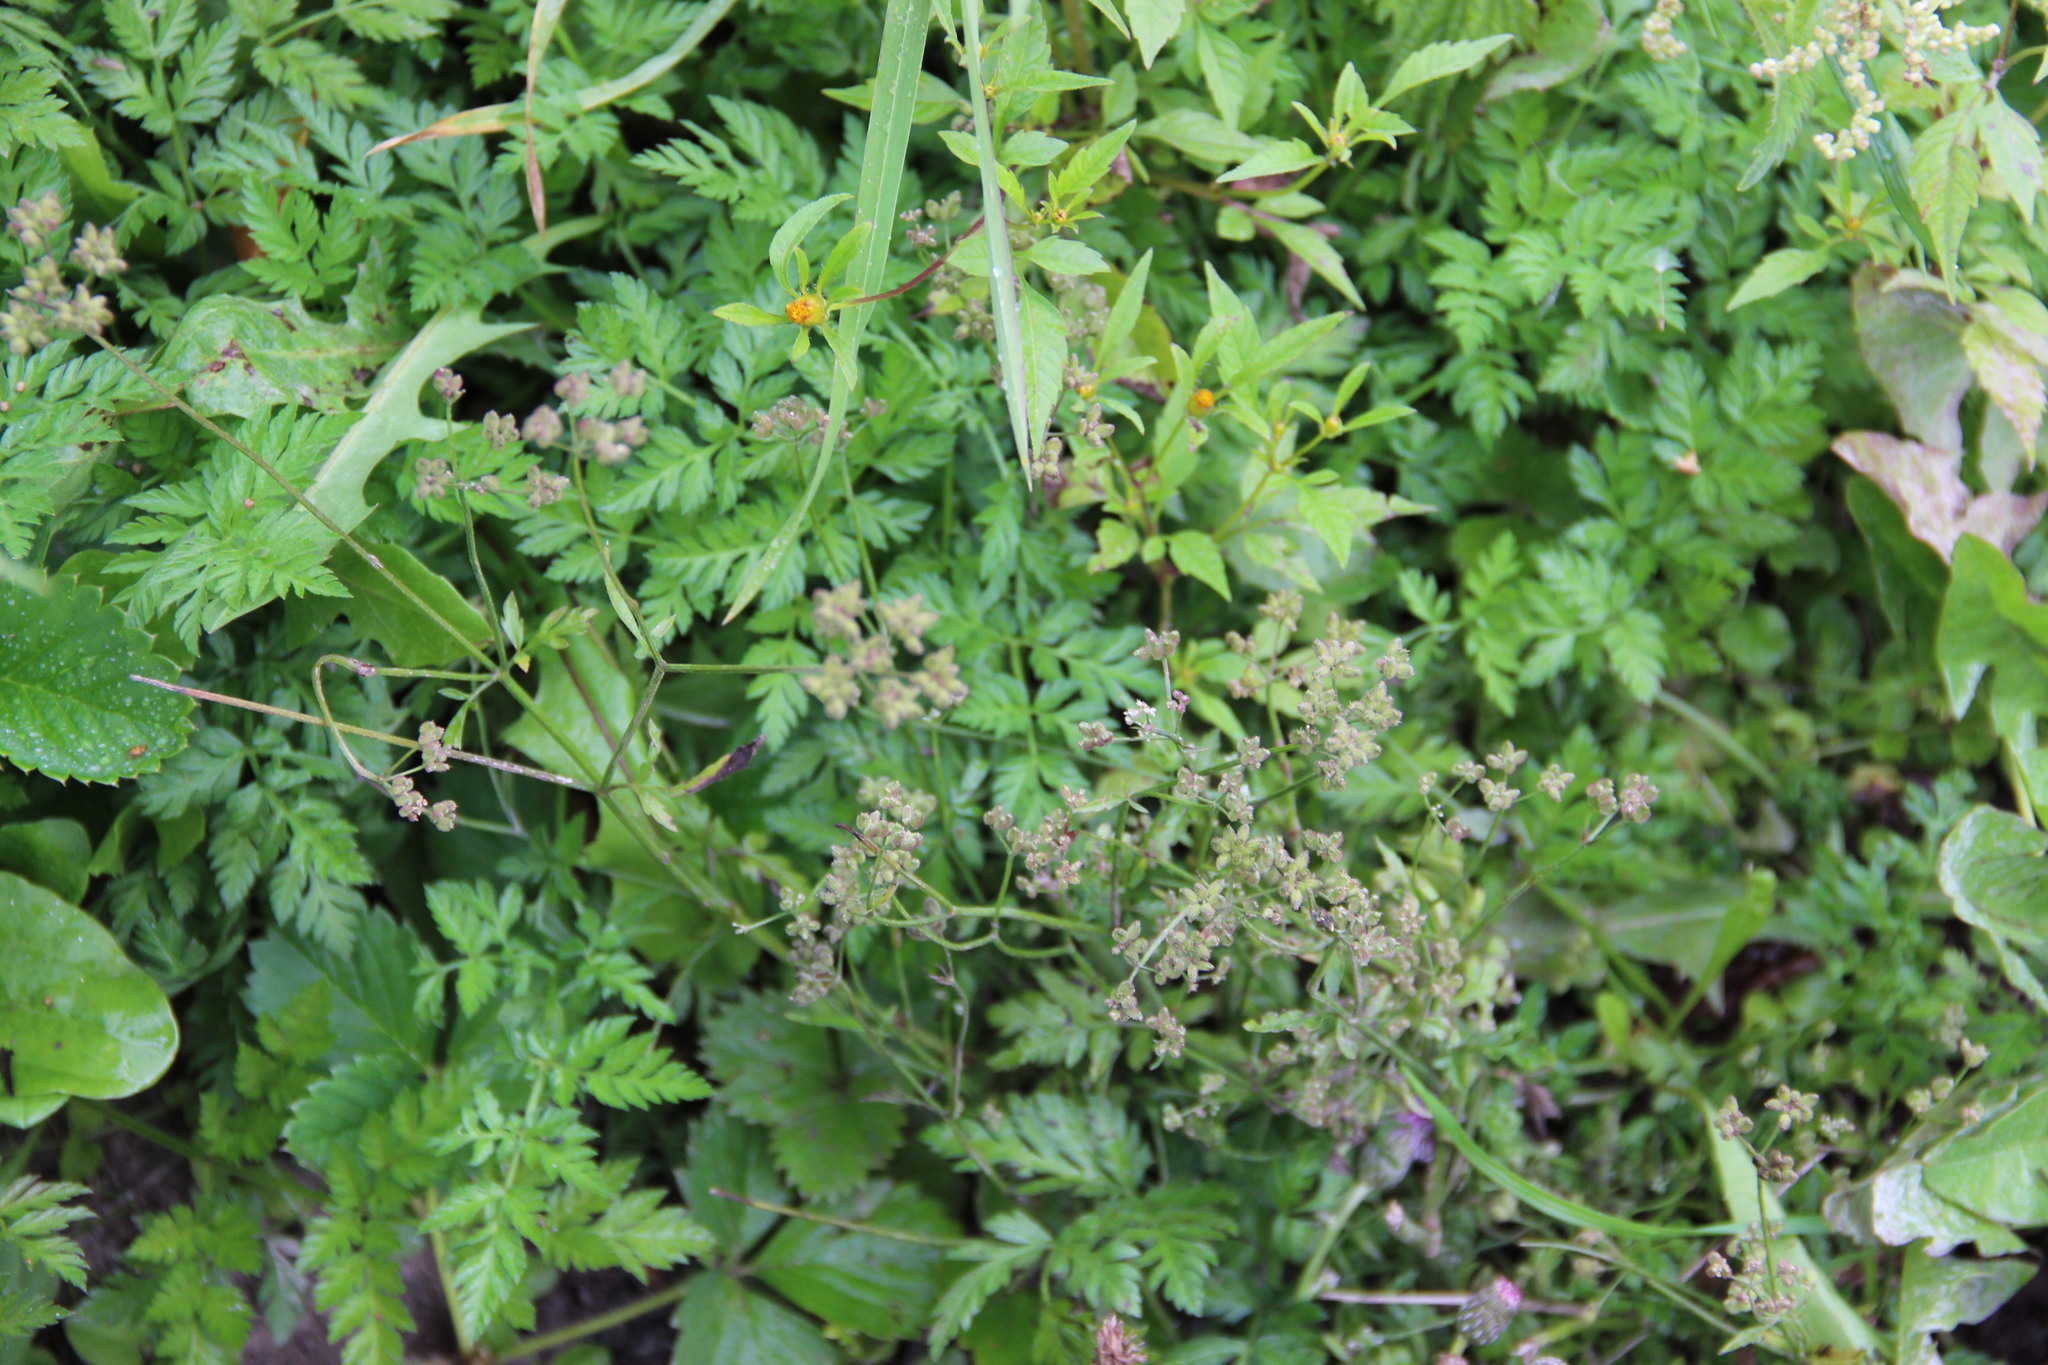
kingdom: Plantae
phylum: Tracheophyta
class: Magnoliopsida
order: Apiales
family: Apiaceae
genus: Torilis
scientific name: Torilis japonica
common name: Upright hedge-parsley
